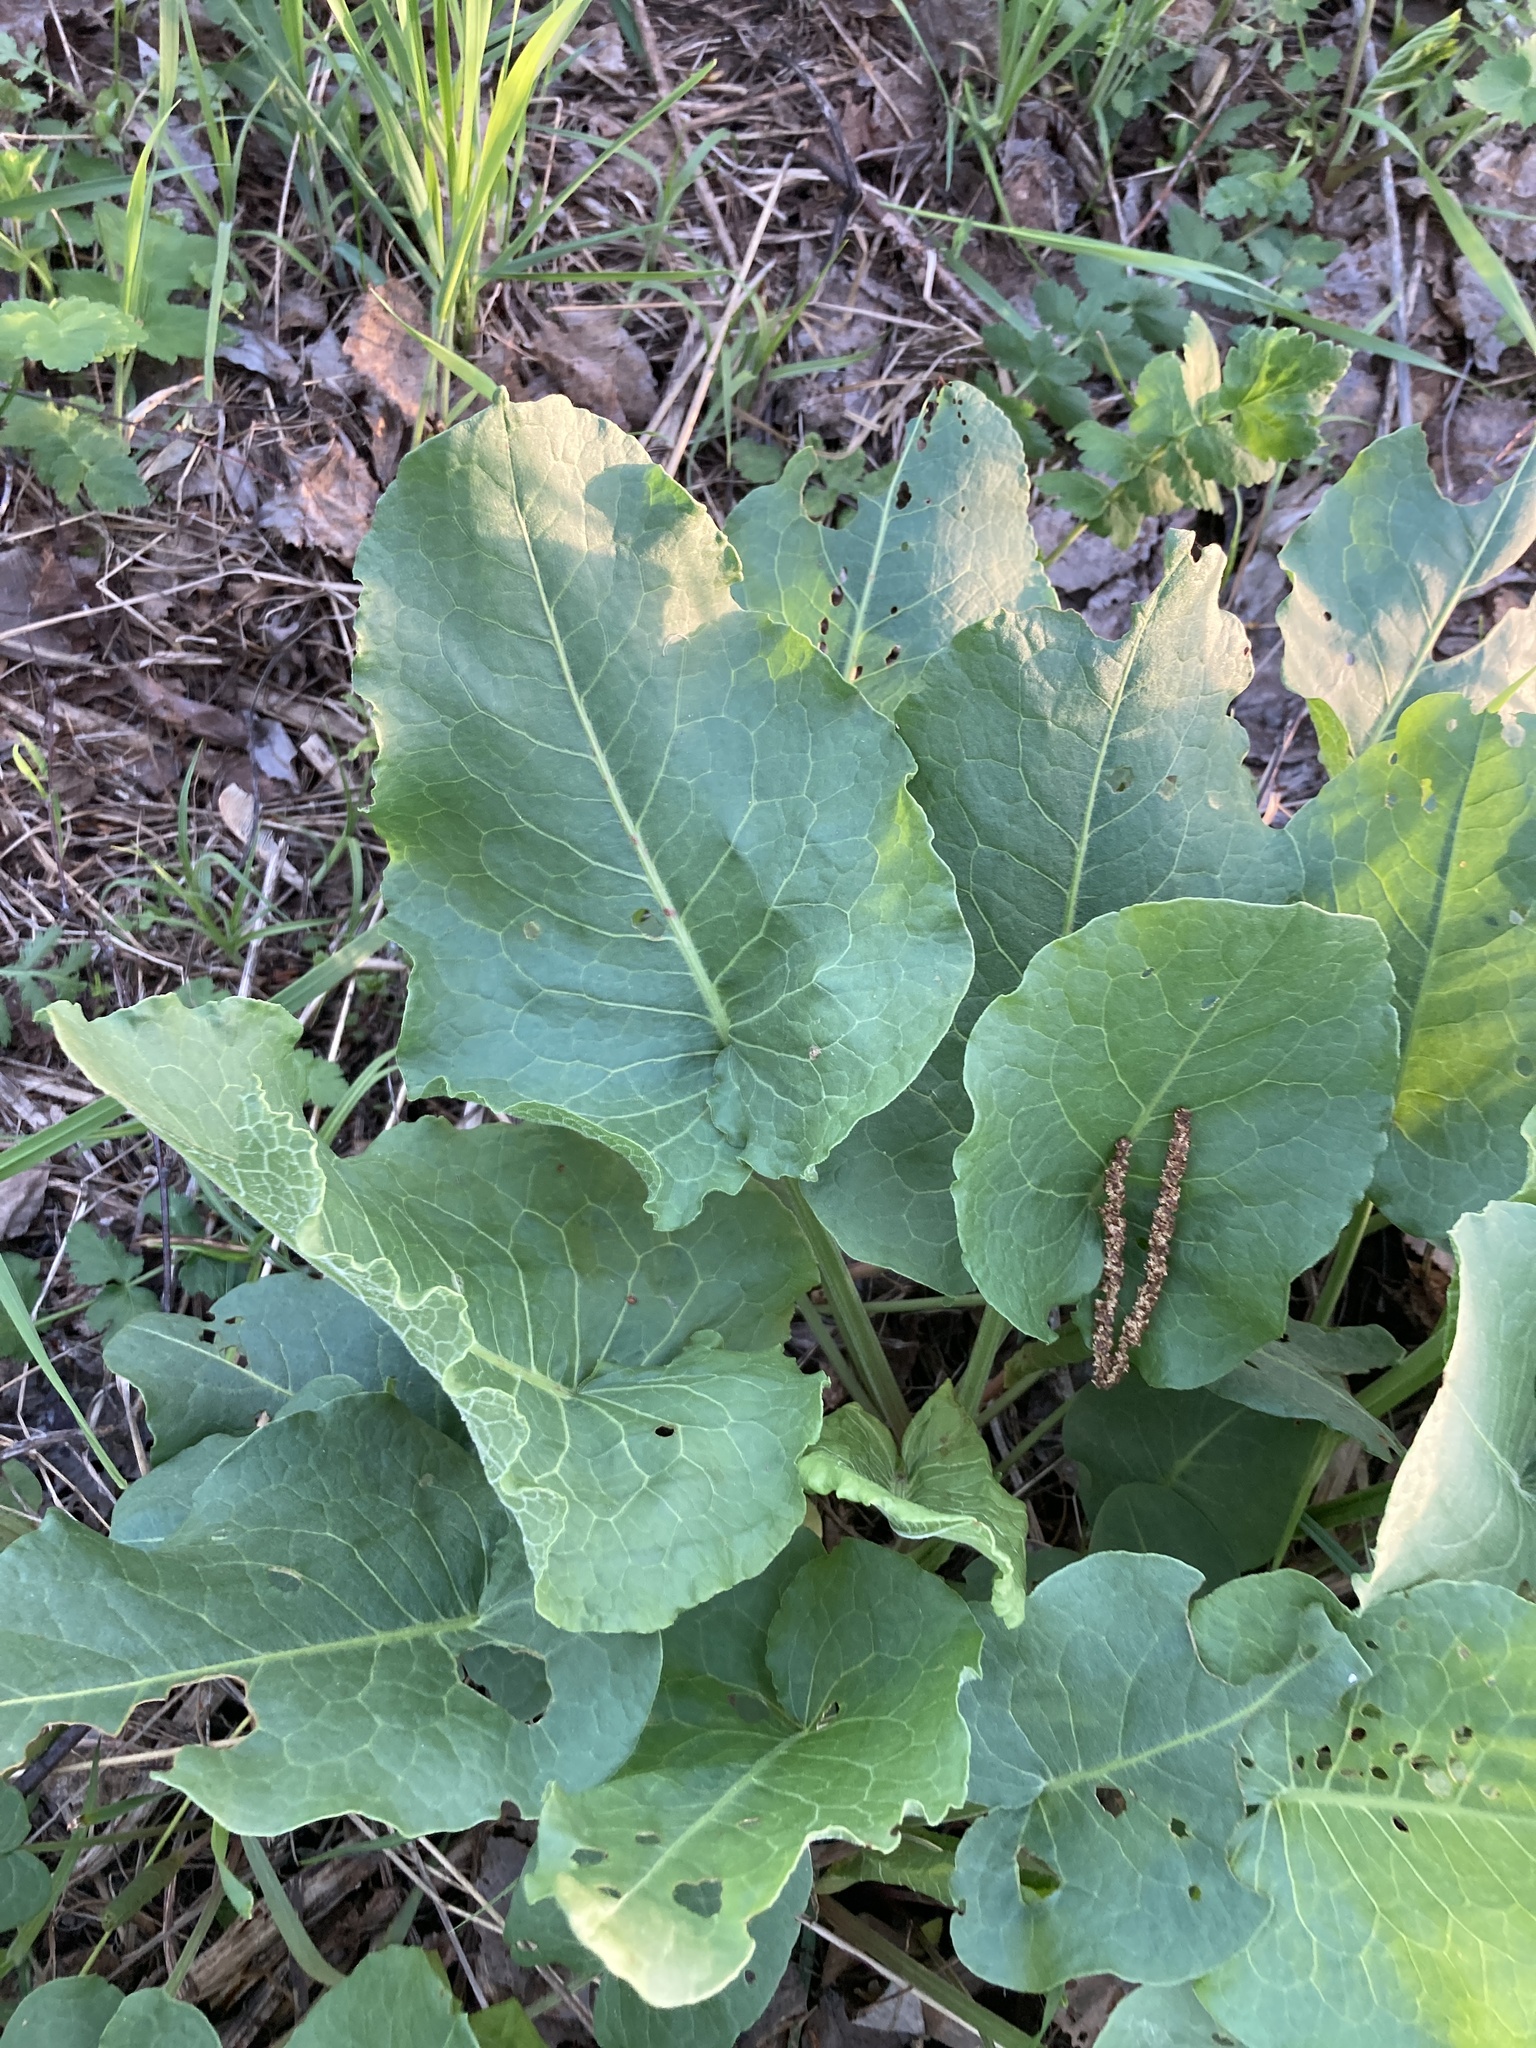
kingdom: Plantae
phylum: Tracheophyta
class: Magnoliopsida
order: Caryophyllales
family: Polygonaceae
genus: Rumex
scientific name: Rumex confertus
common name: Russian dock
